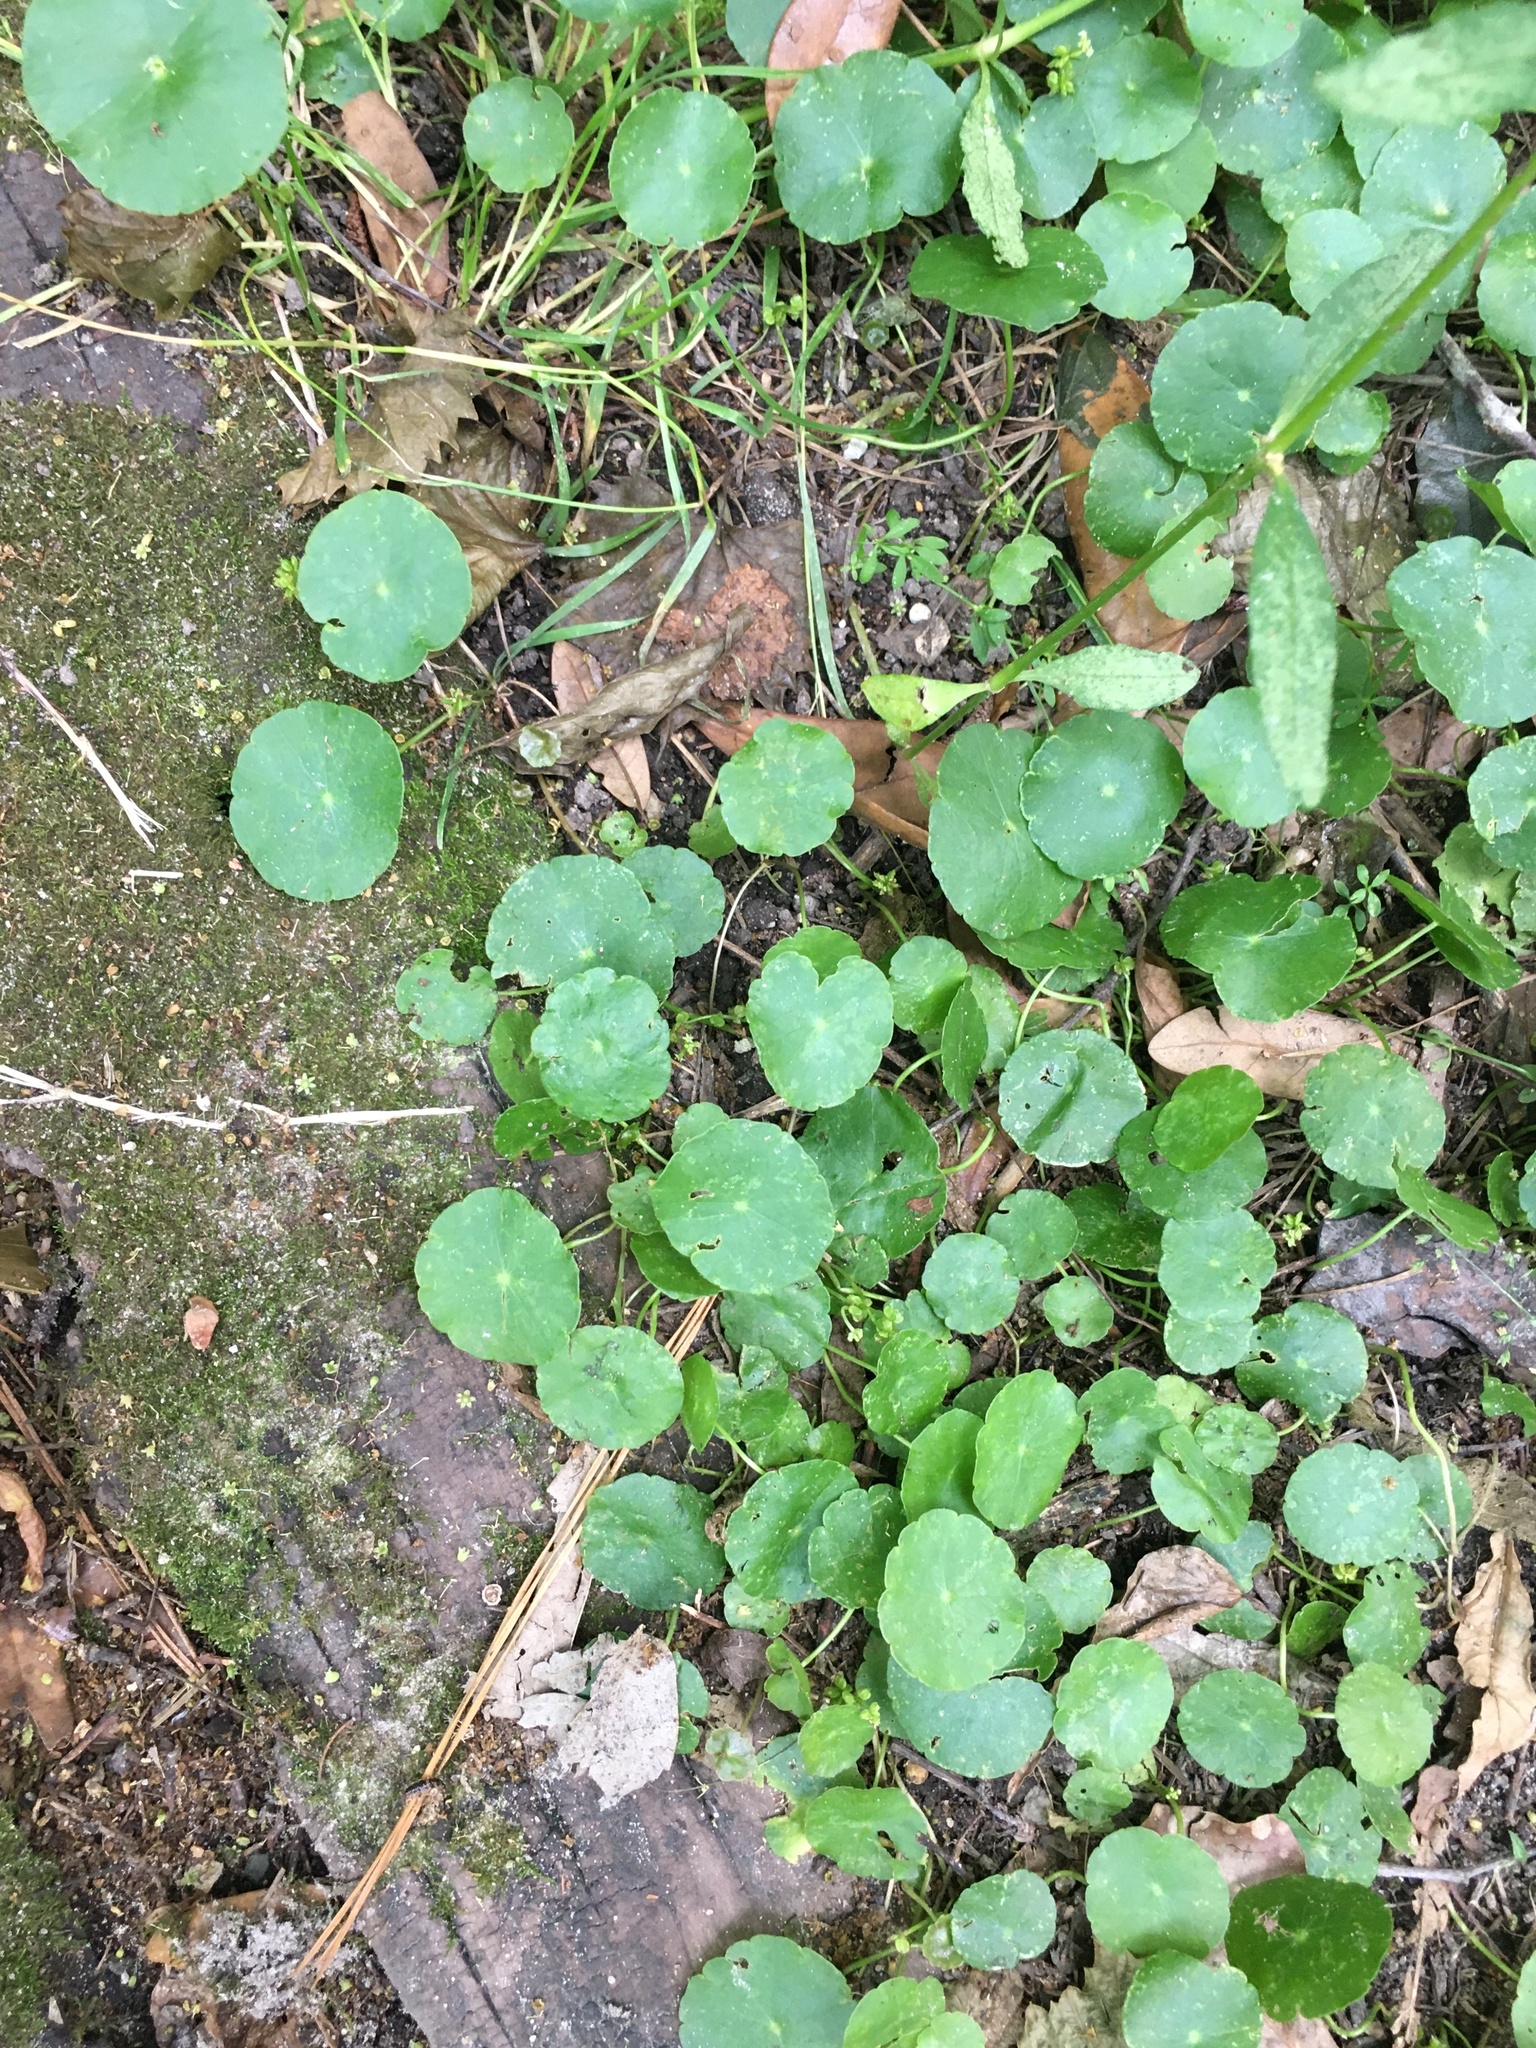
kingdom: Plantae
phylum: Tracheophyta
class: Magnoliopsida
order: Apiales
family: Araliaceae
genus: Hydrocotyle
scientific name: Hydrocotyle verticillata
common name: Whorled marshpennywort
